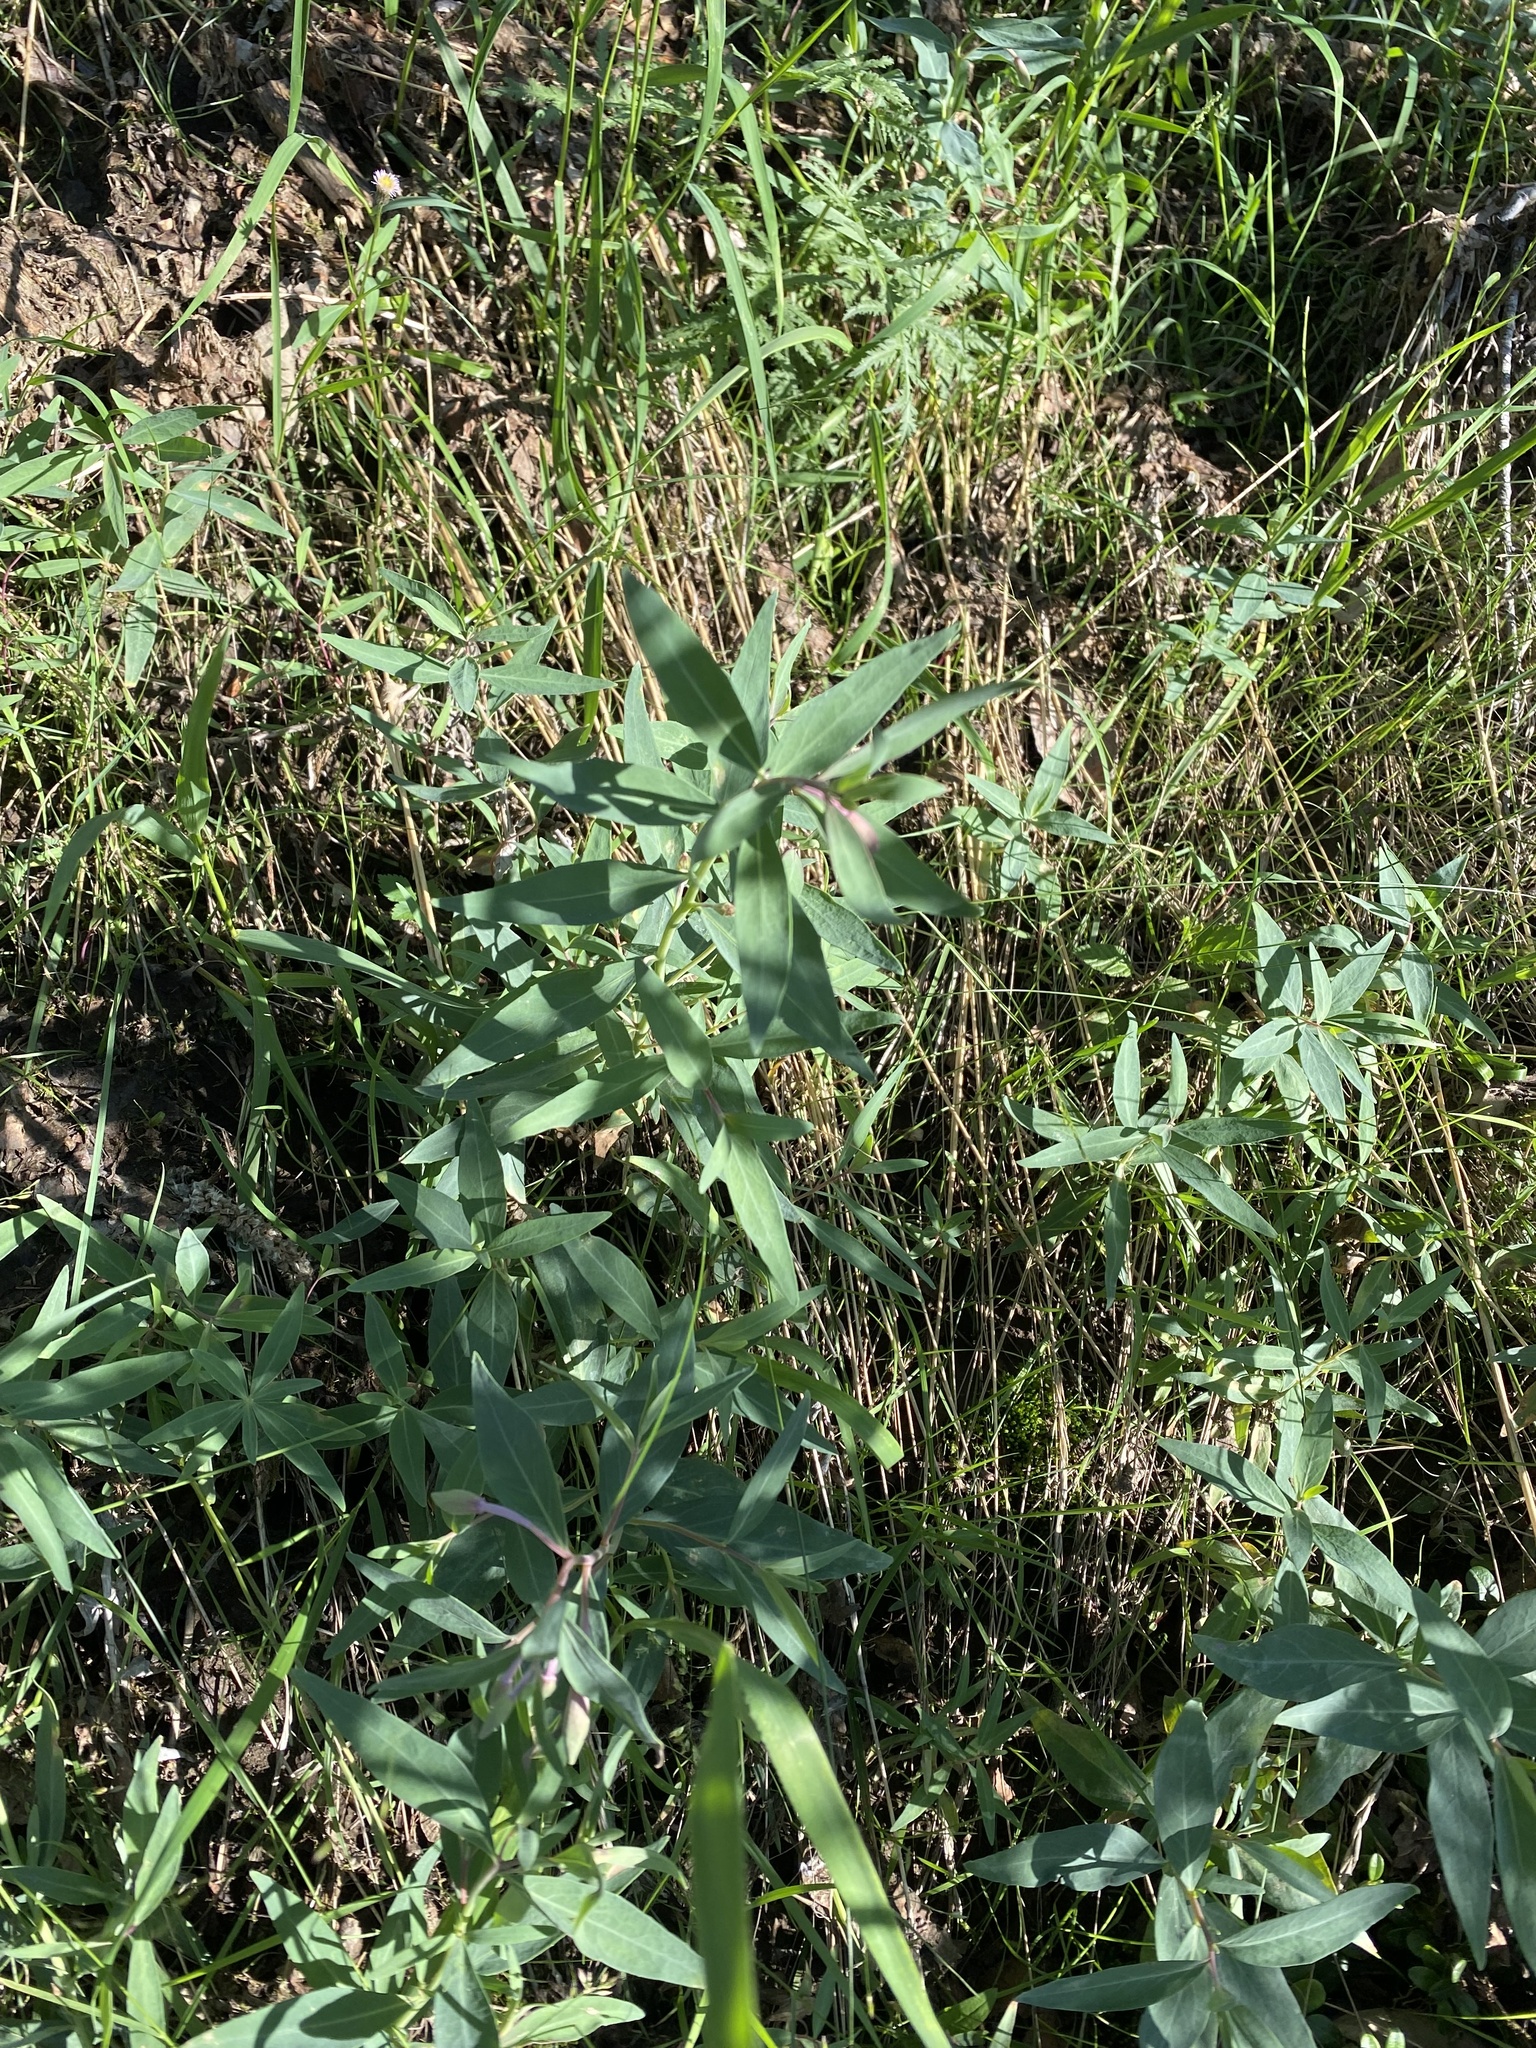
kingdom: Plantae
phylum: Tracheophyta
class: Magnoliopsida
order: Myrtales
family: Onagraceae
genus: Chamaenerion
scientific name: Chamaenerion latifolium
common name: Dwarf fireweed
